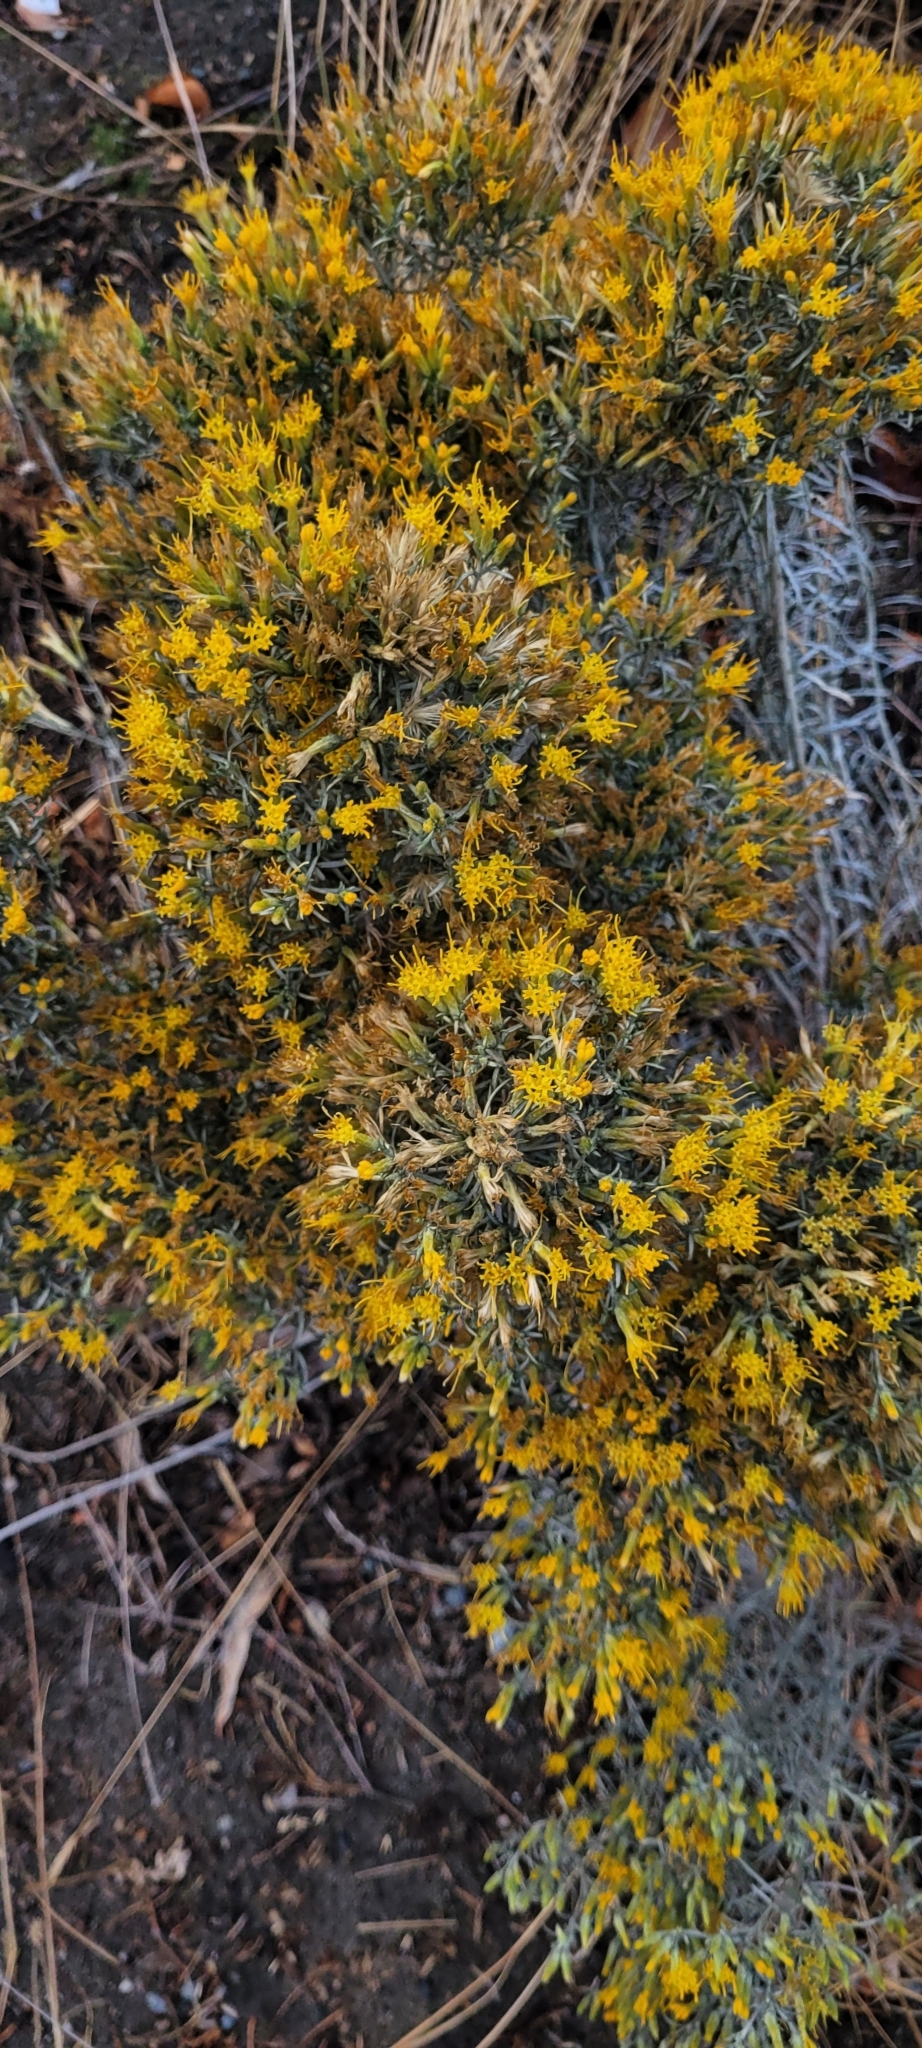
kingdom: Plantae
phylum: Tracheophyta
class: Magnoliopsida
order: Asterales
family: Asteraceae
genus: Ericameria
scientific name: Ericameria nauseosa
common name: Rubber rabbitbrush
